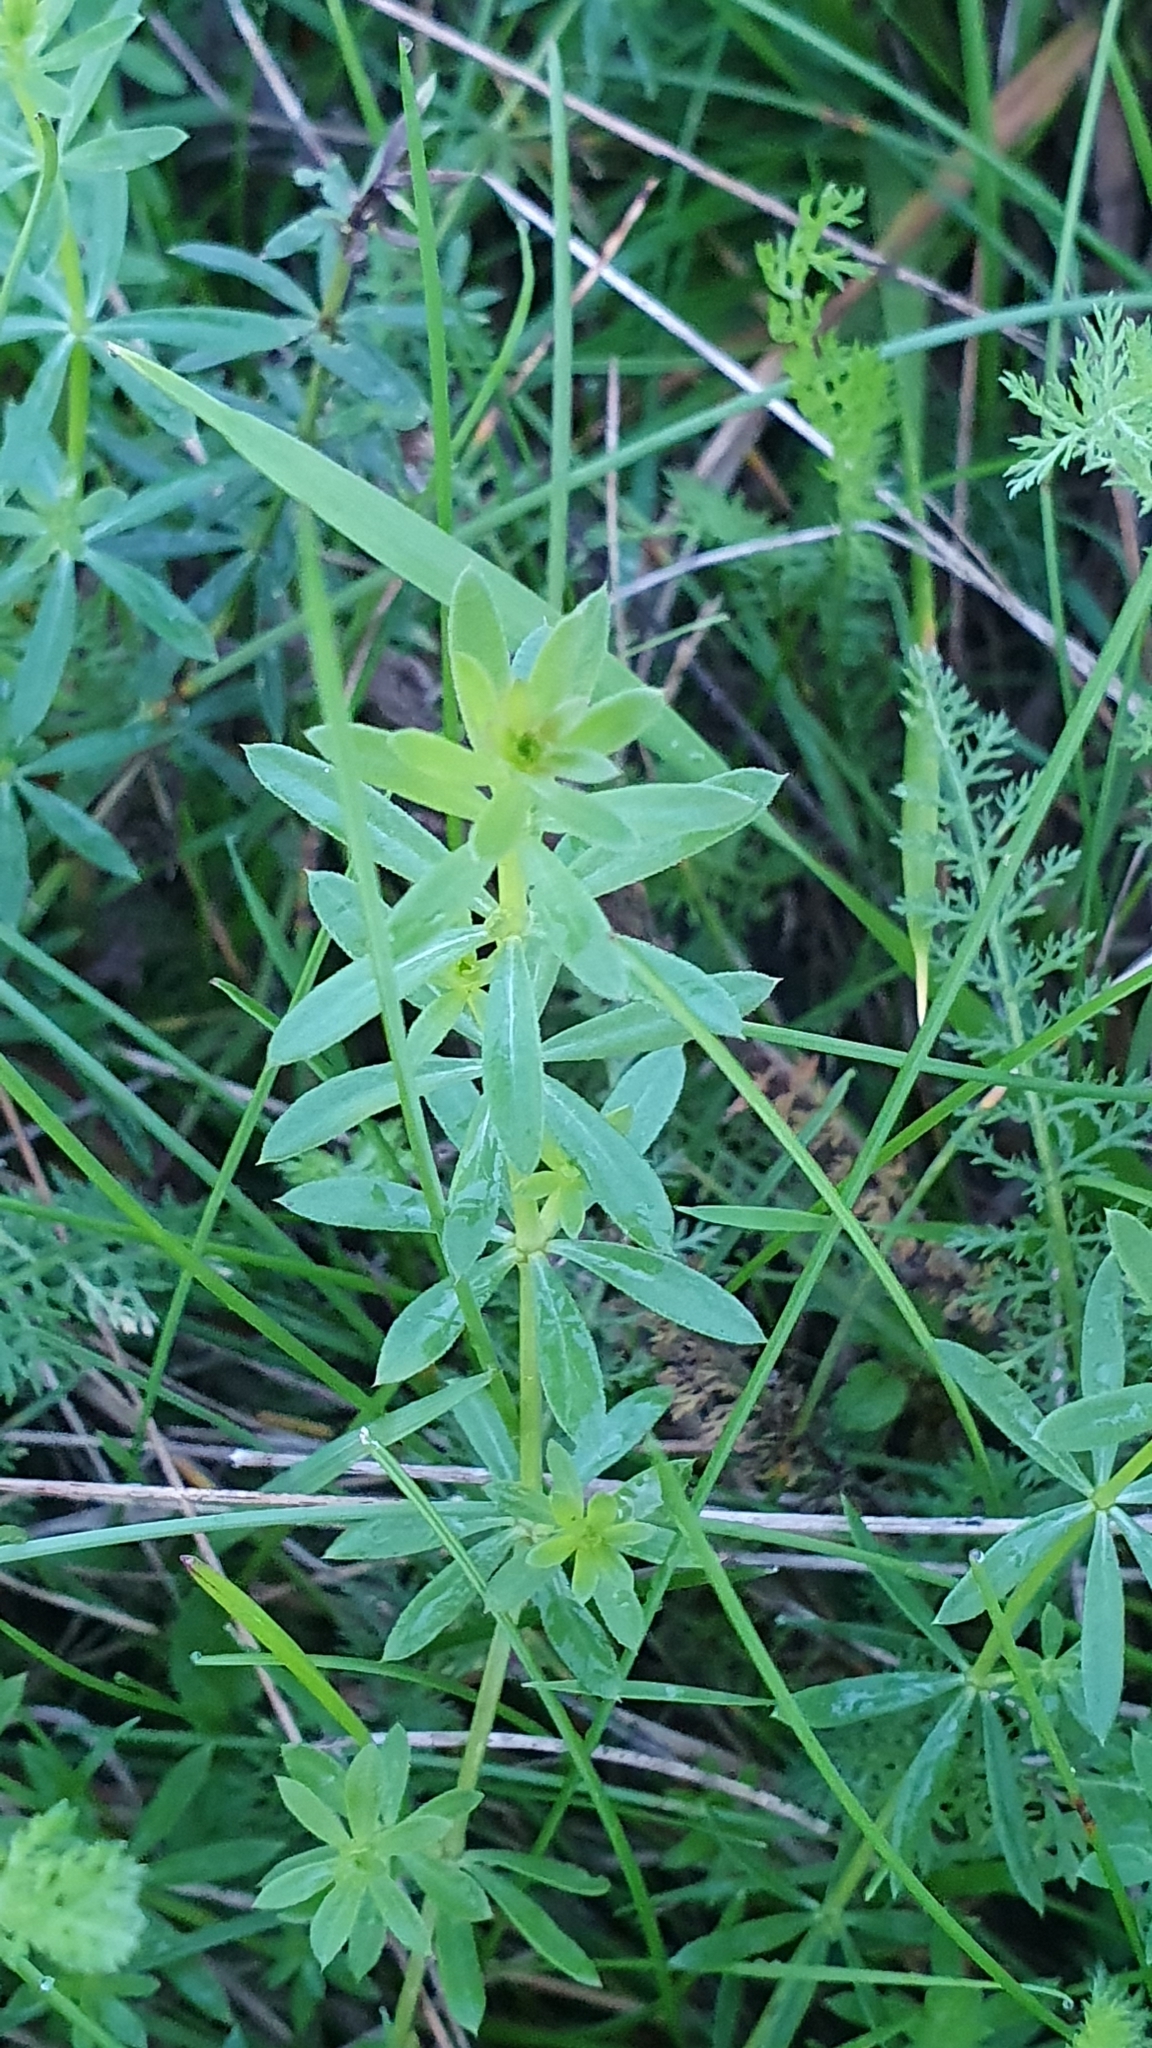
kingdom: Plantae
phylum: Tracheophyta
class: Magnoliopsida
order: Gentianales
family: Rubiaceae
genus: Galium
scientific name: Galium mollugo
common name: Hedge bedstraw
